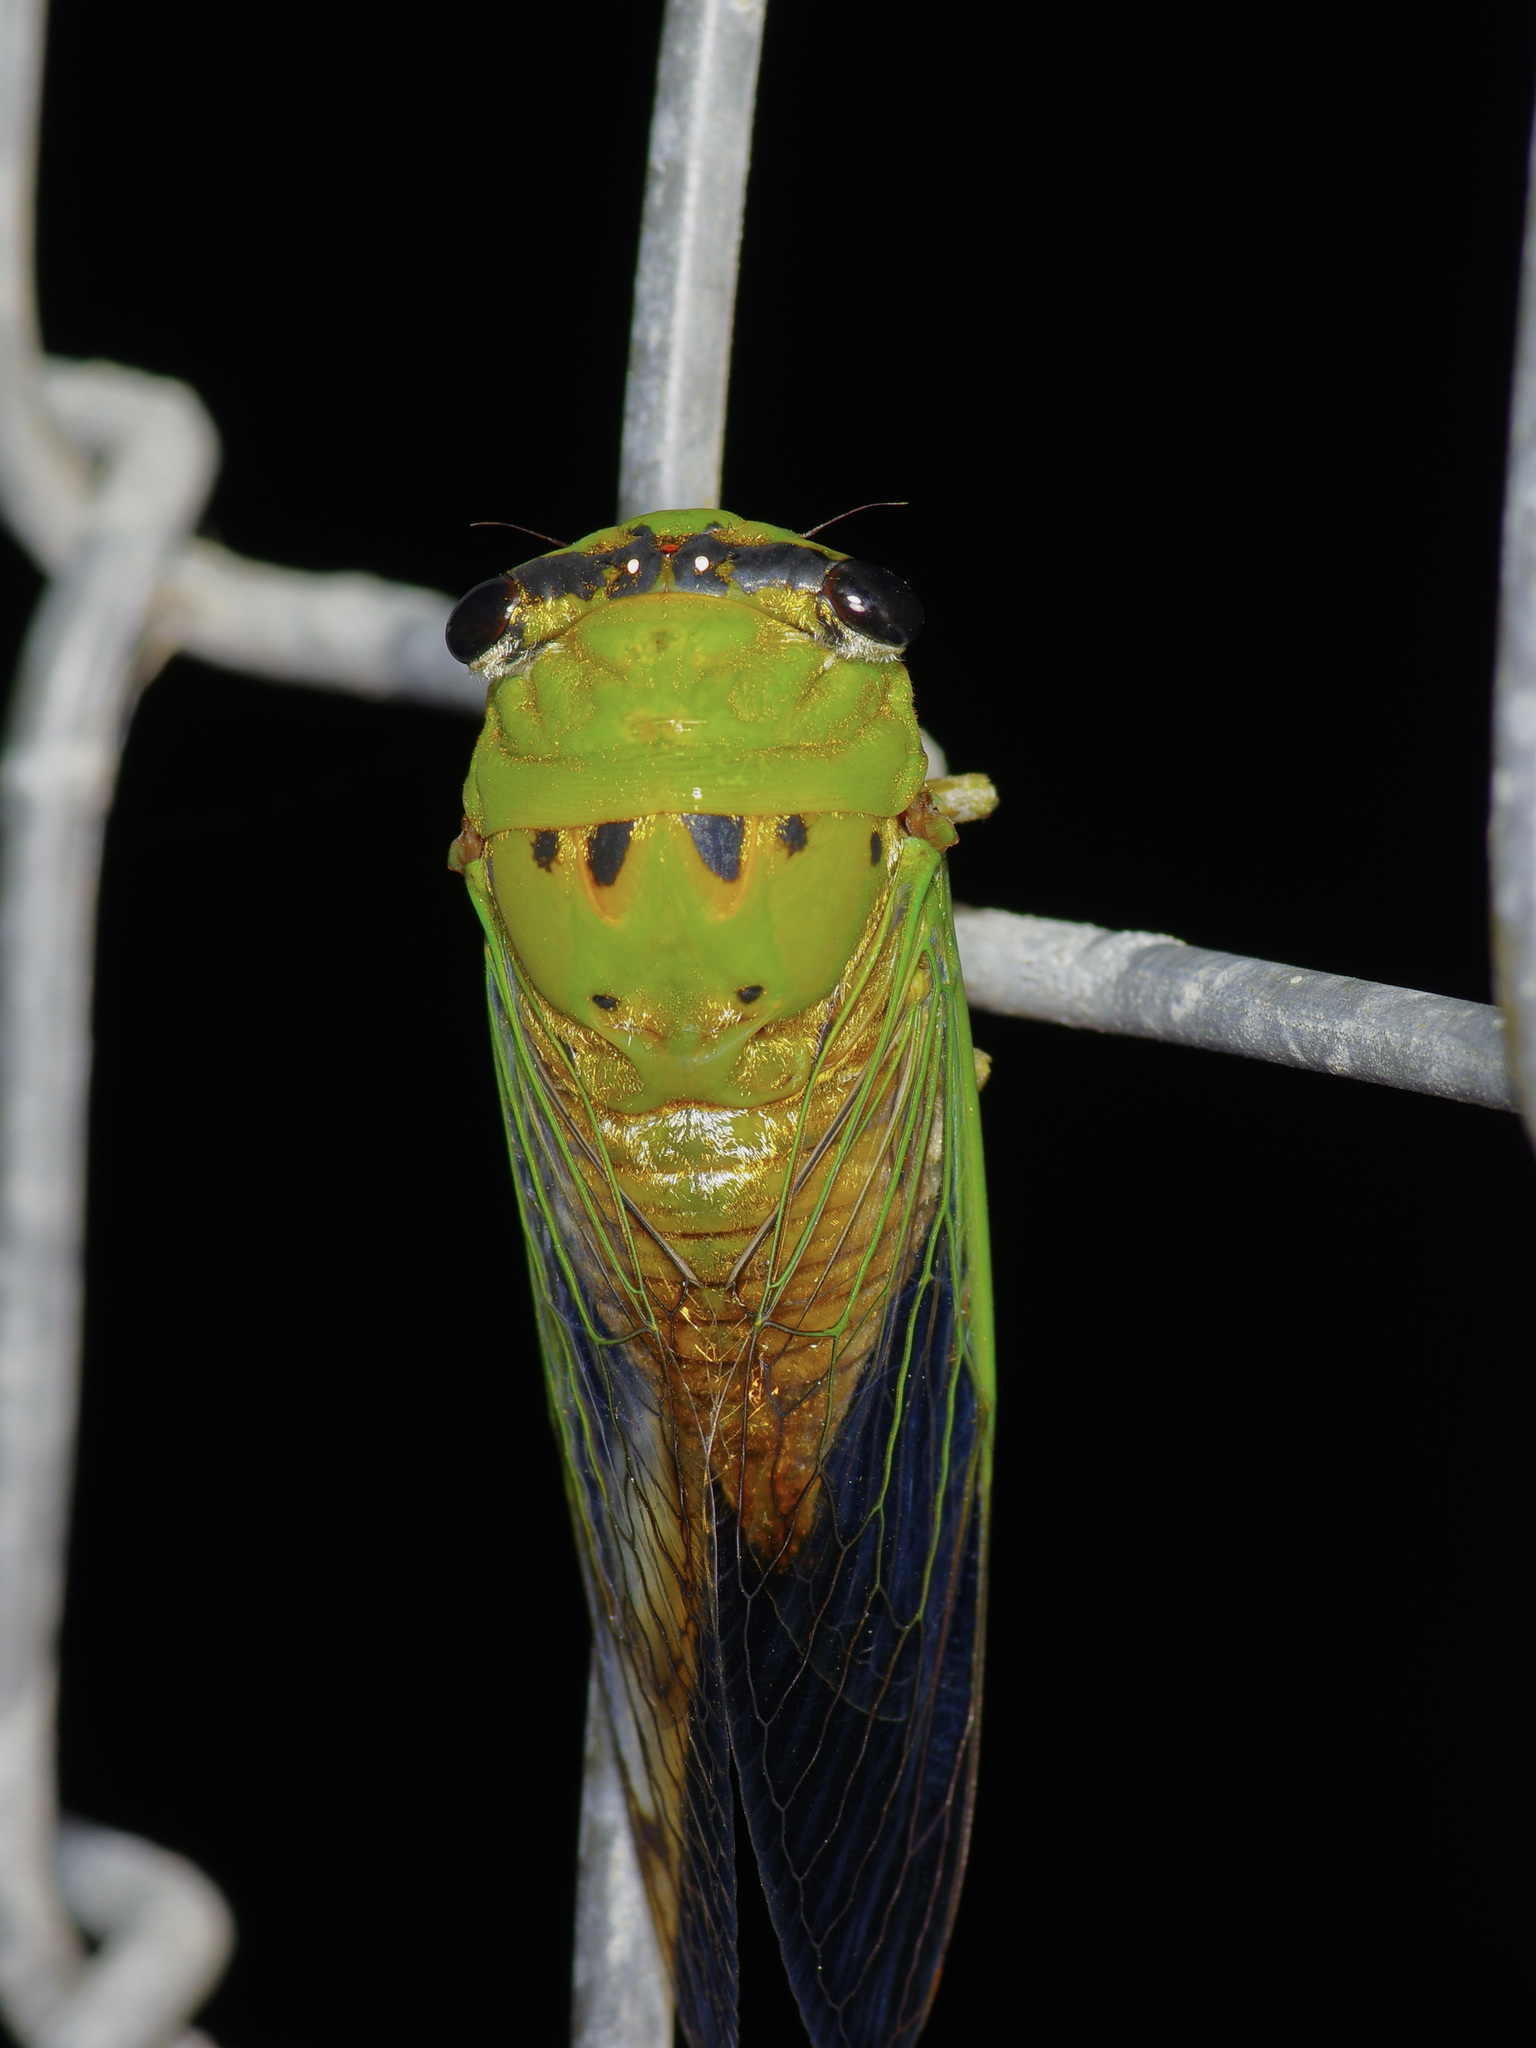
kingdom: Animalia
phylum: Arthropoda
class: Insecta
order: Hemiptera
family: Cicadidae
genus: Neotibicen
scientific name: Neotibicen superbus
